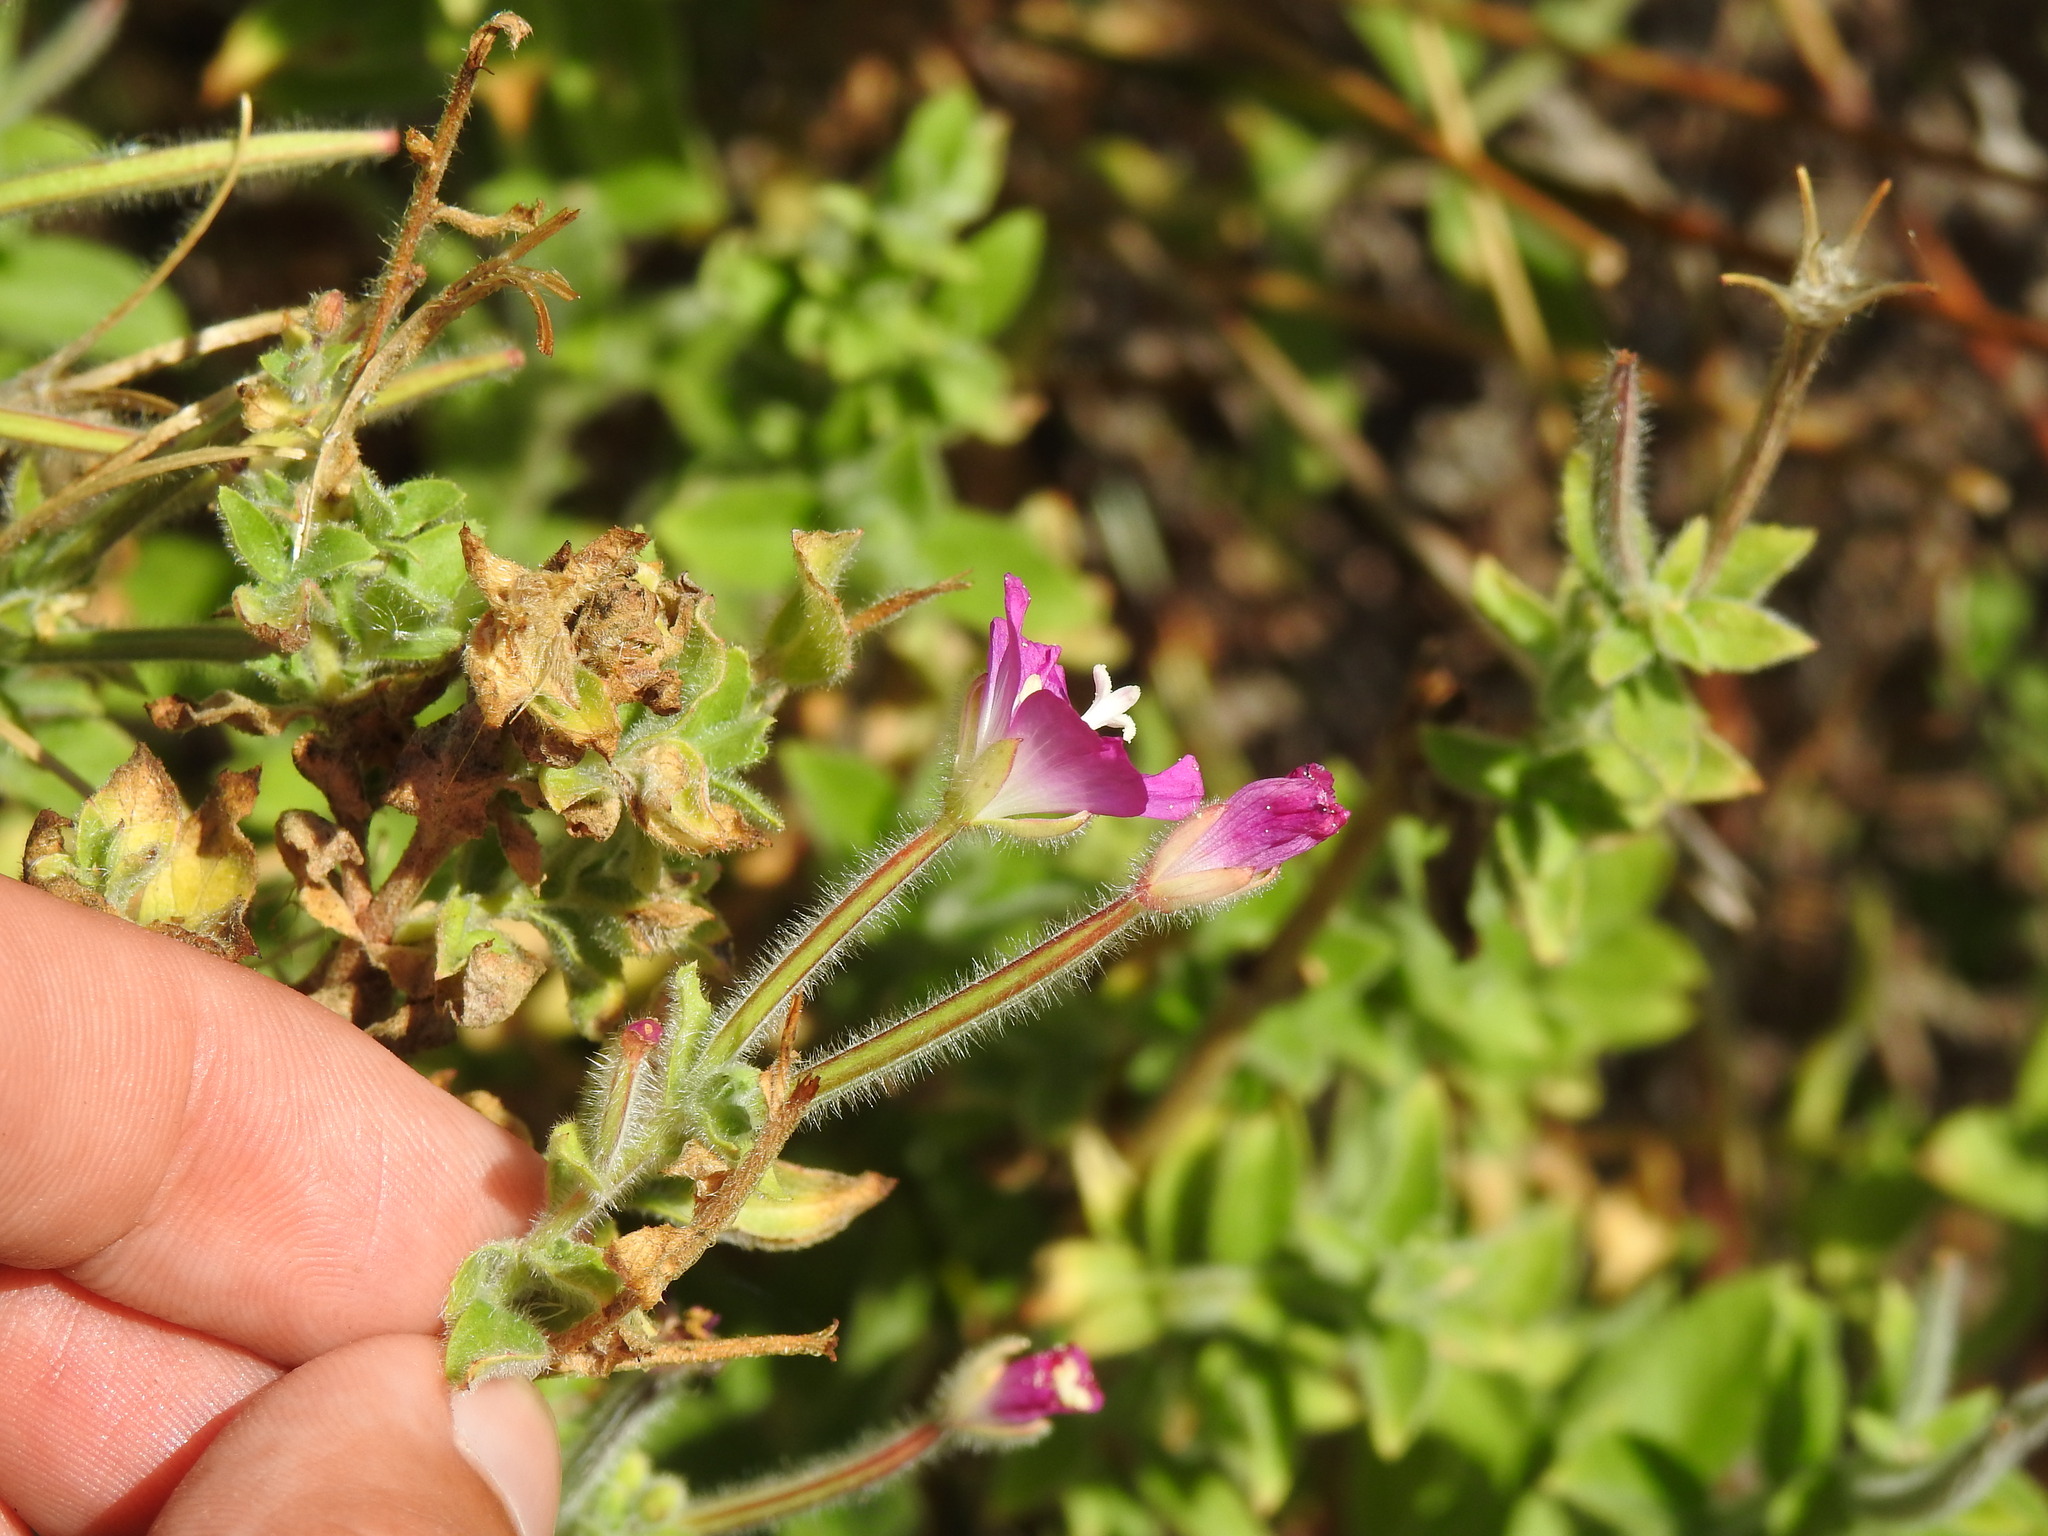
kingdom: Plantae
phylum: Tracheophyta
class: Magnoliopsida
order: Myrtales
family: Onagraceae
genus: Epilobium
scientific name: Epilobium hirsutum
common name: Great willowherb
